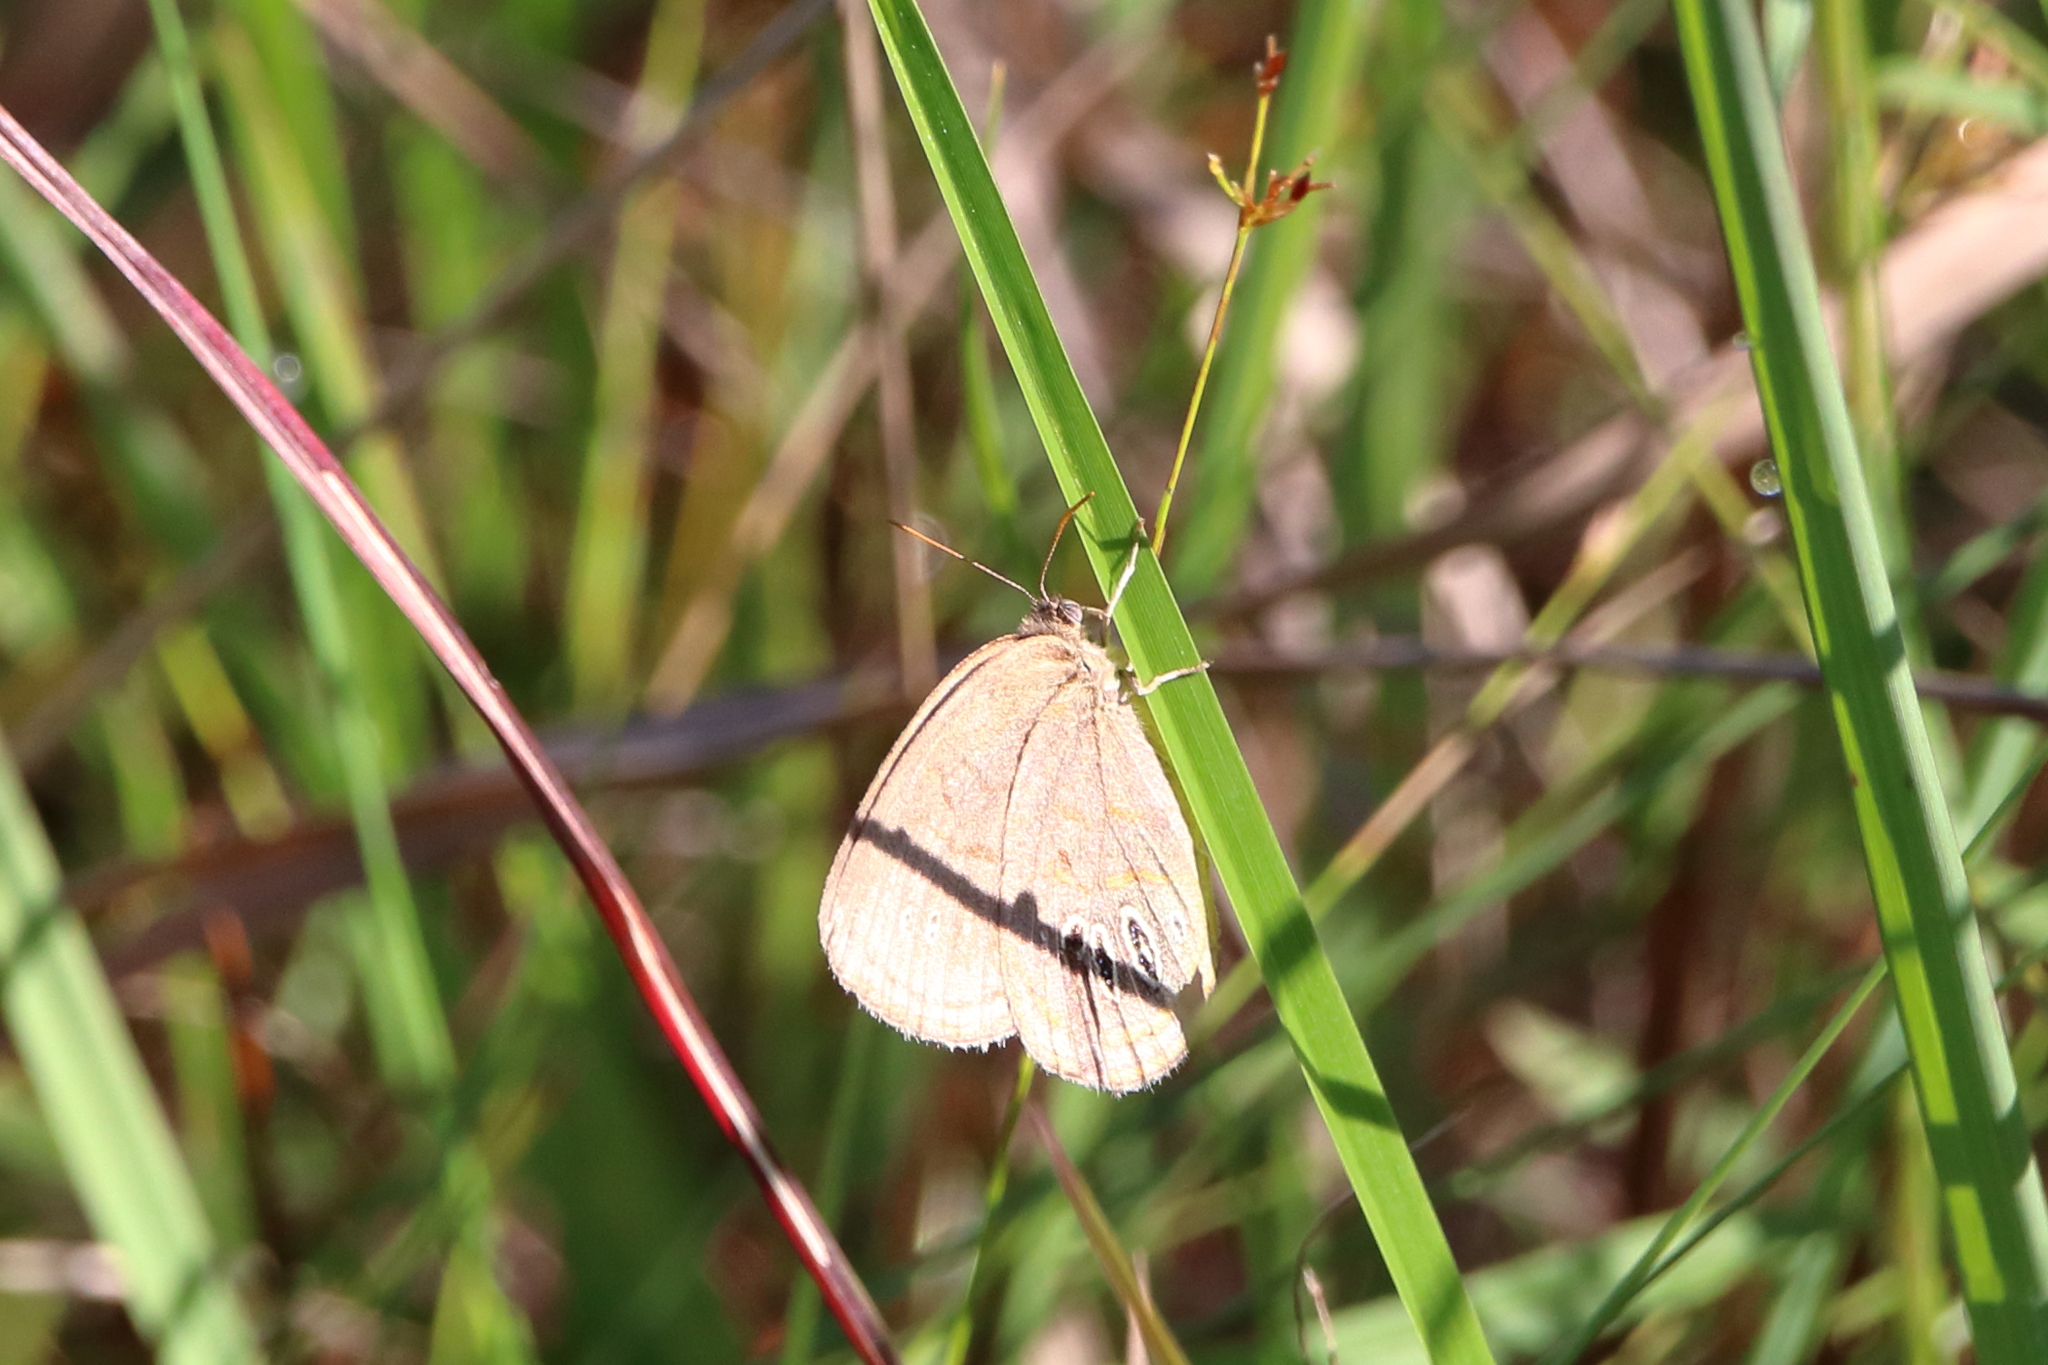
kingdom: Animalia
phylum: Arthropoda
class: Insecta
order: Lepidoptera
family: Nymphalidae
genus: Euptychia
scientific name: Euptychia phocion
